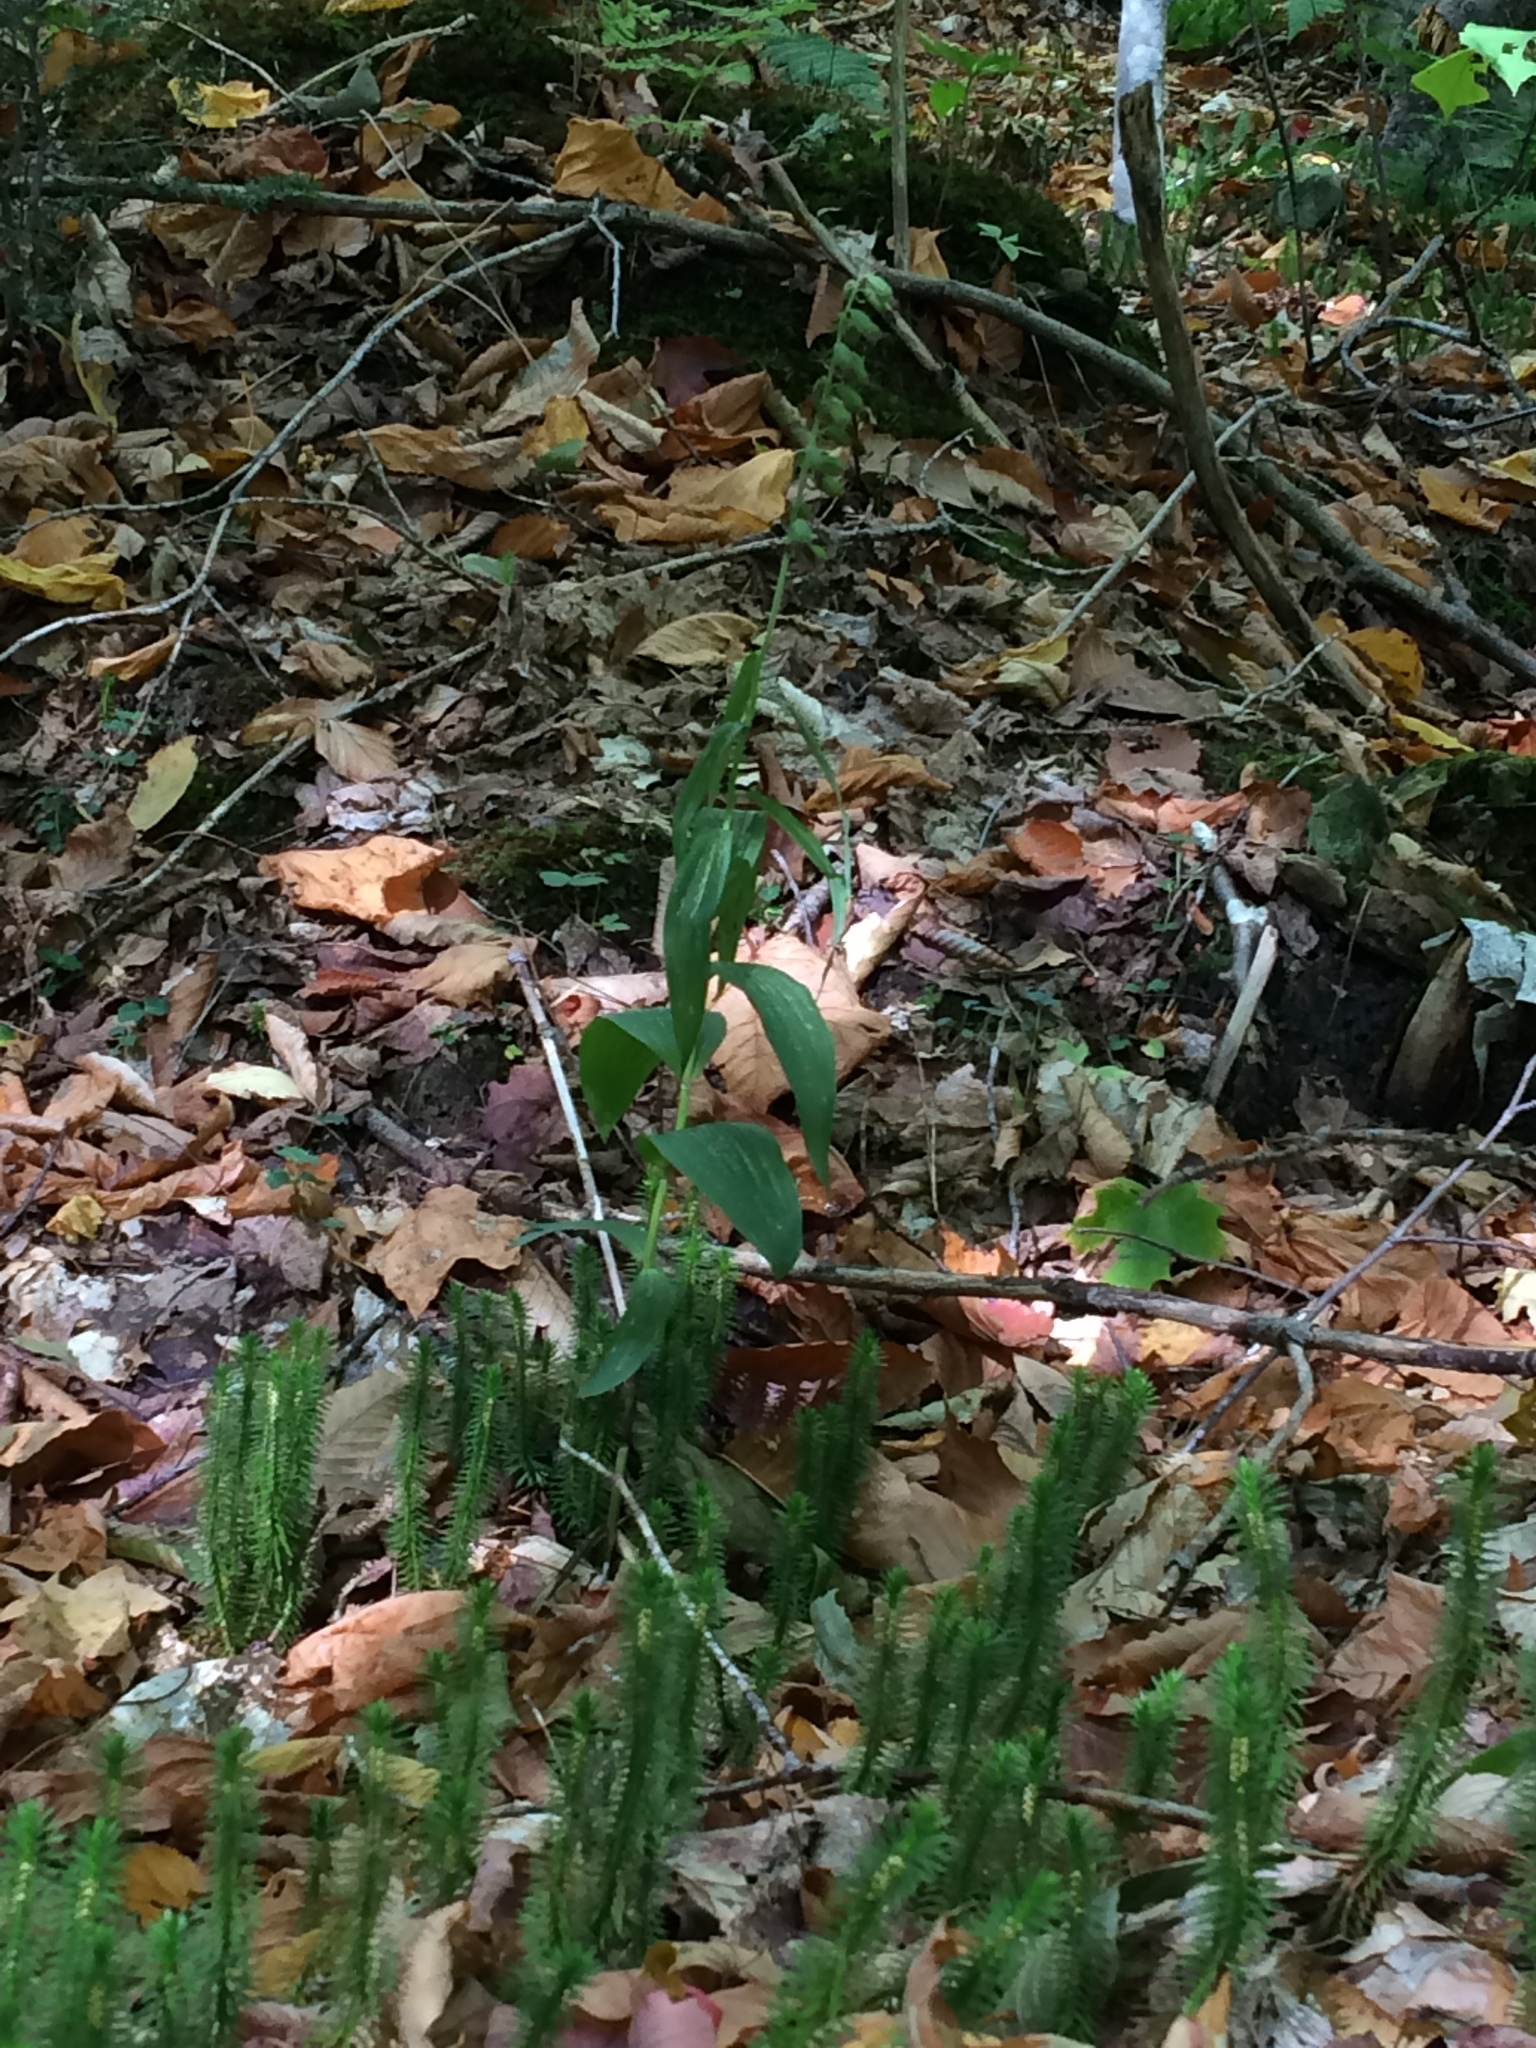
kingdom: Plantae
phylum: Tracheophyta
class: Liliopsida
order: Asparagales
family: Orchidaceae
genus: Epipactis
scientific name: Epipactis helleborine
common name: Broad-leaved helleborine
